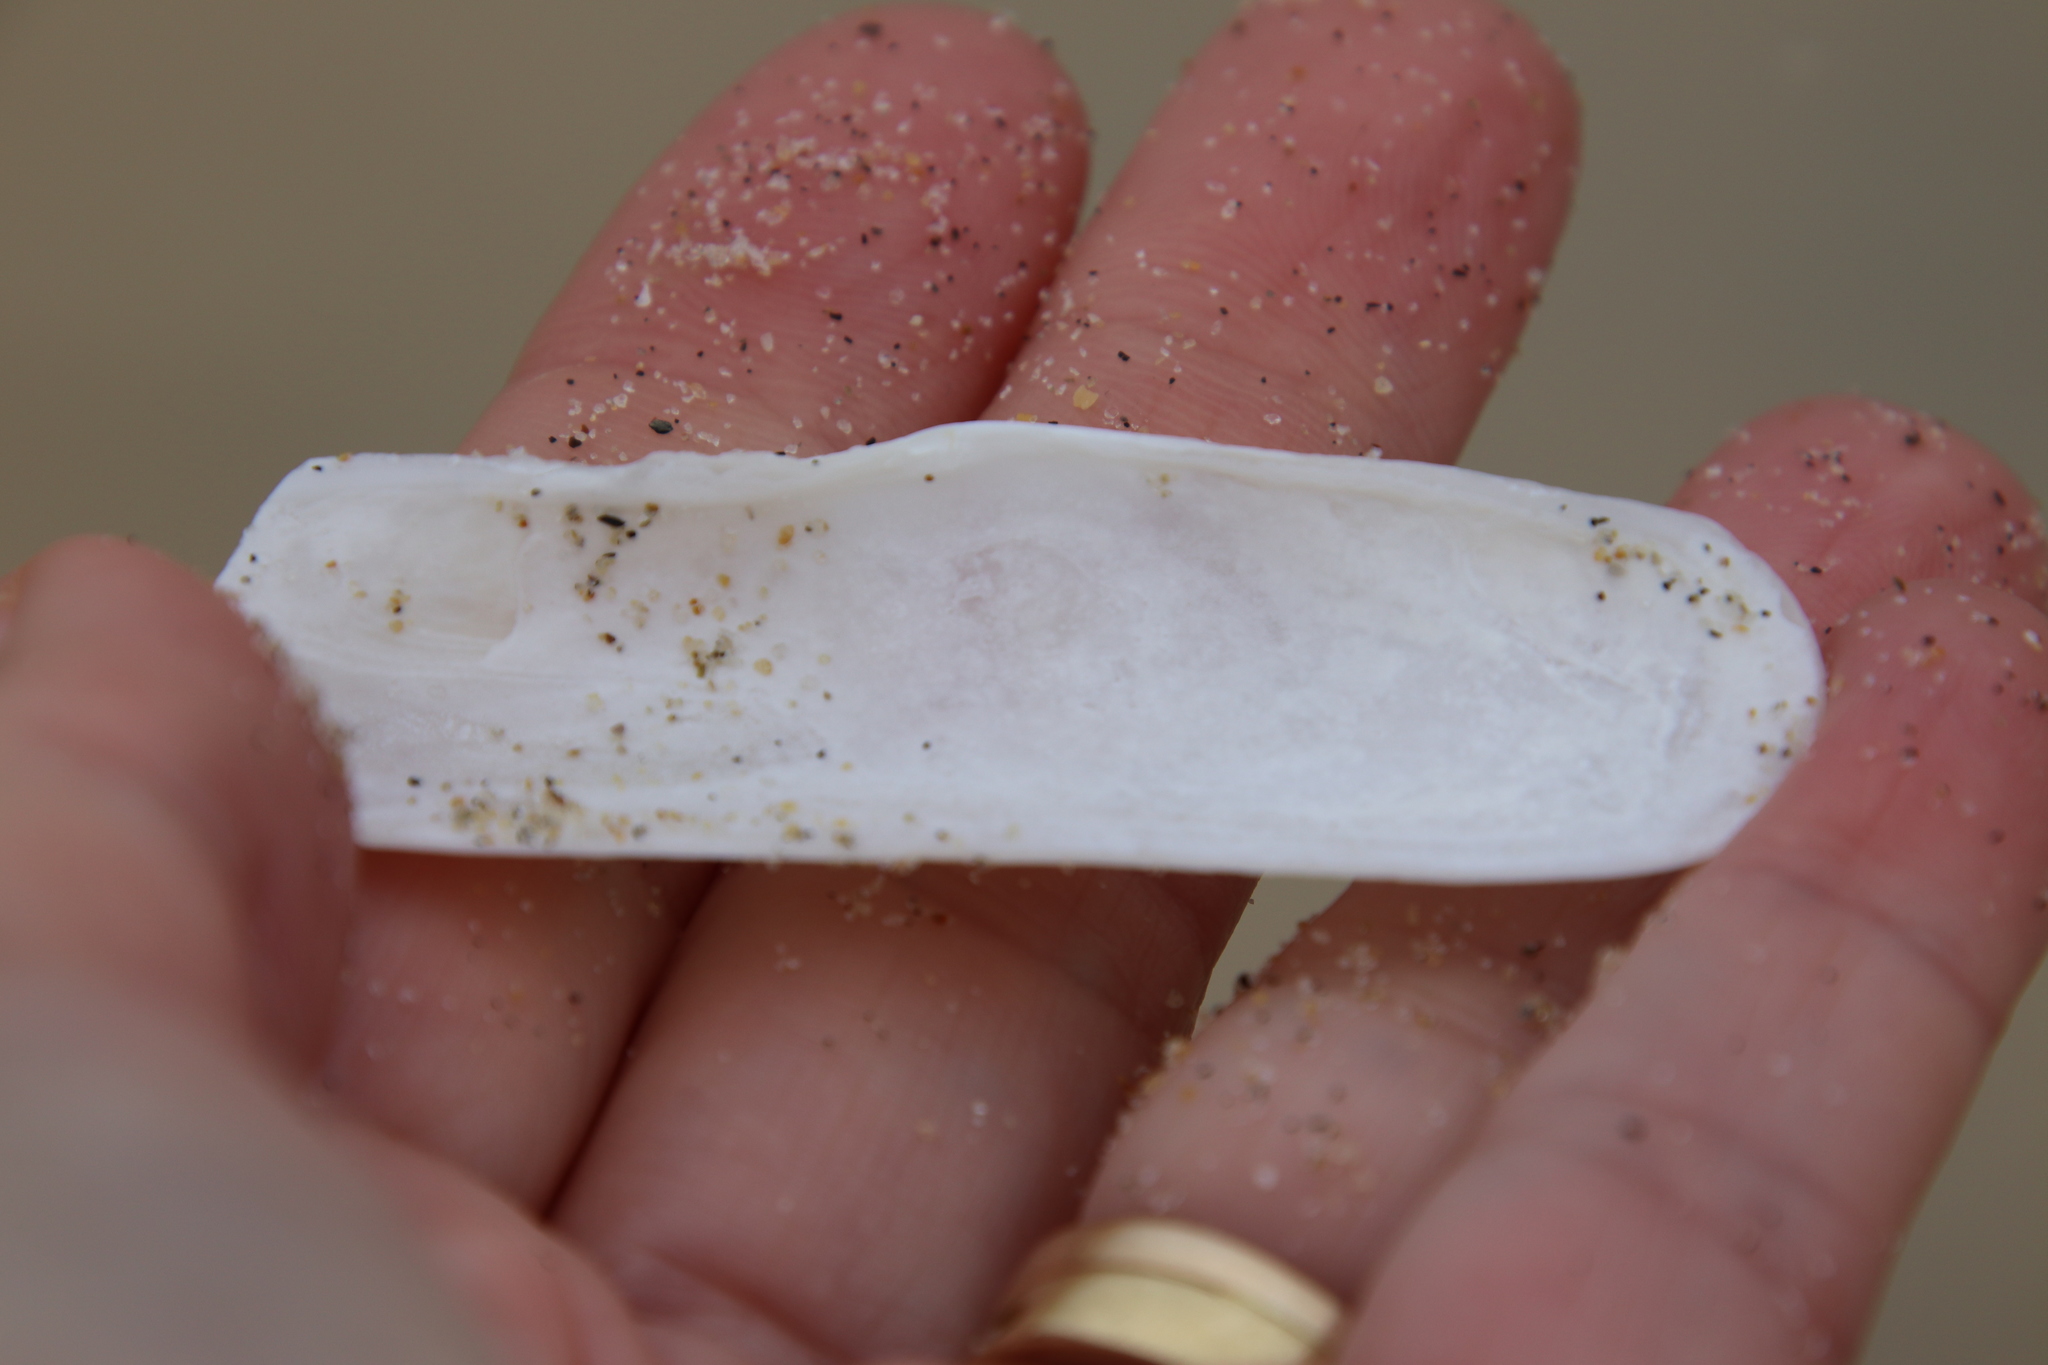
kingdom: Animalia
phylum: Mollusca
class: Bivalvia
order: Cardiida
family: Solecurtidae
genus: Tagelus
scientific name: Tagelus californianus
